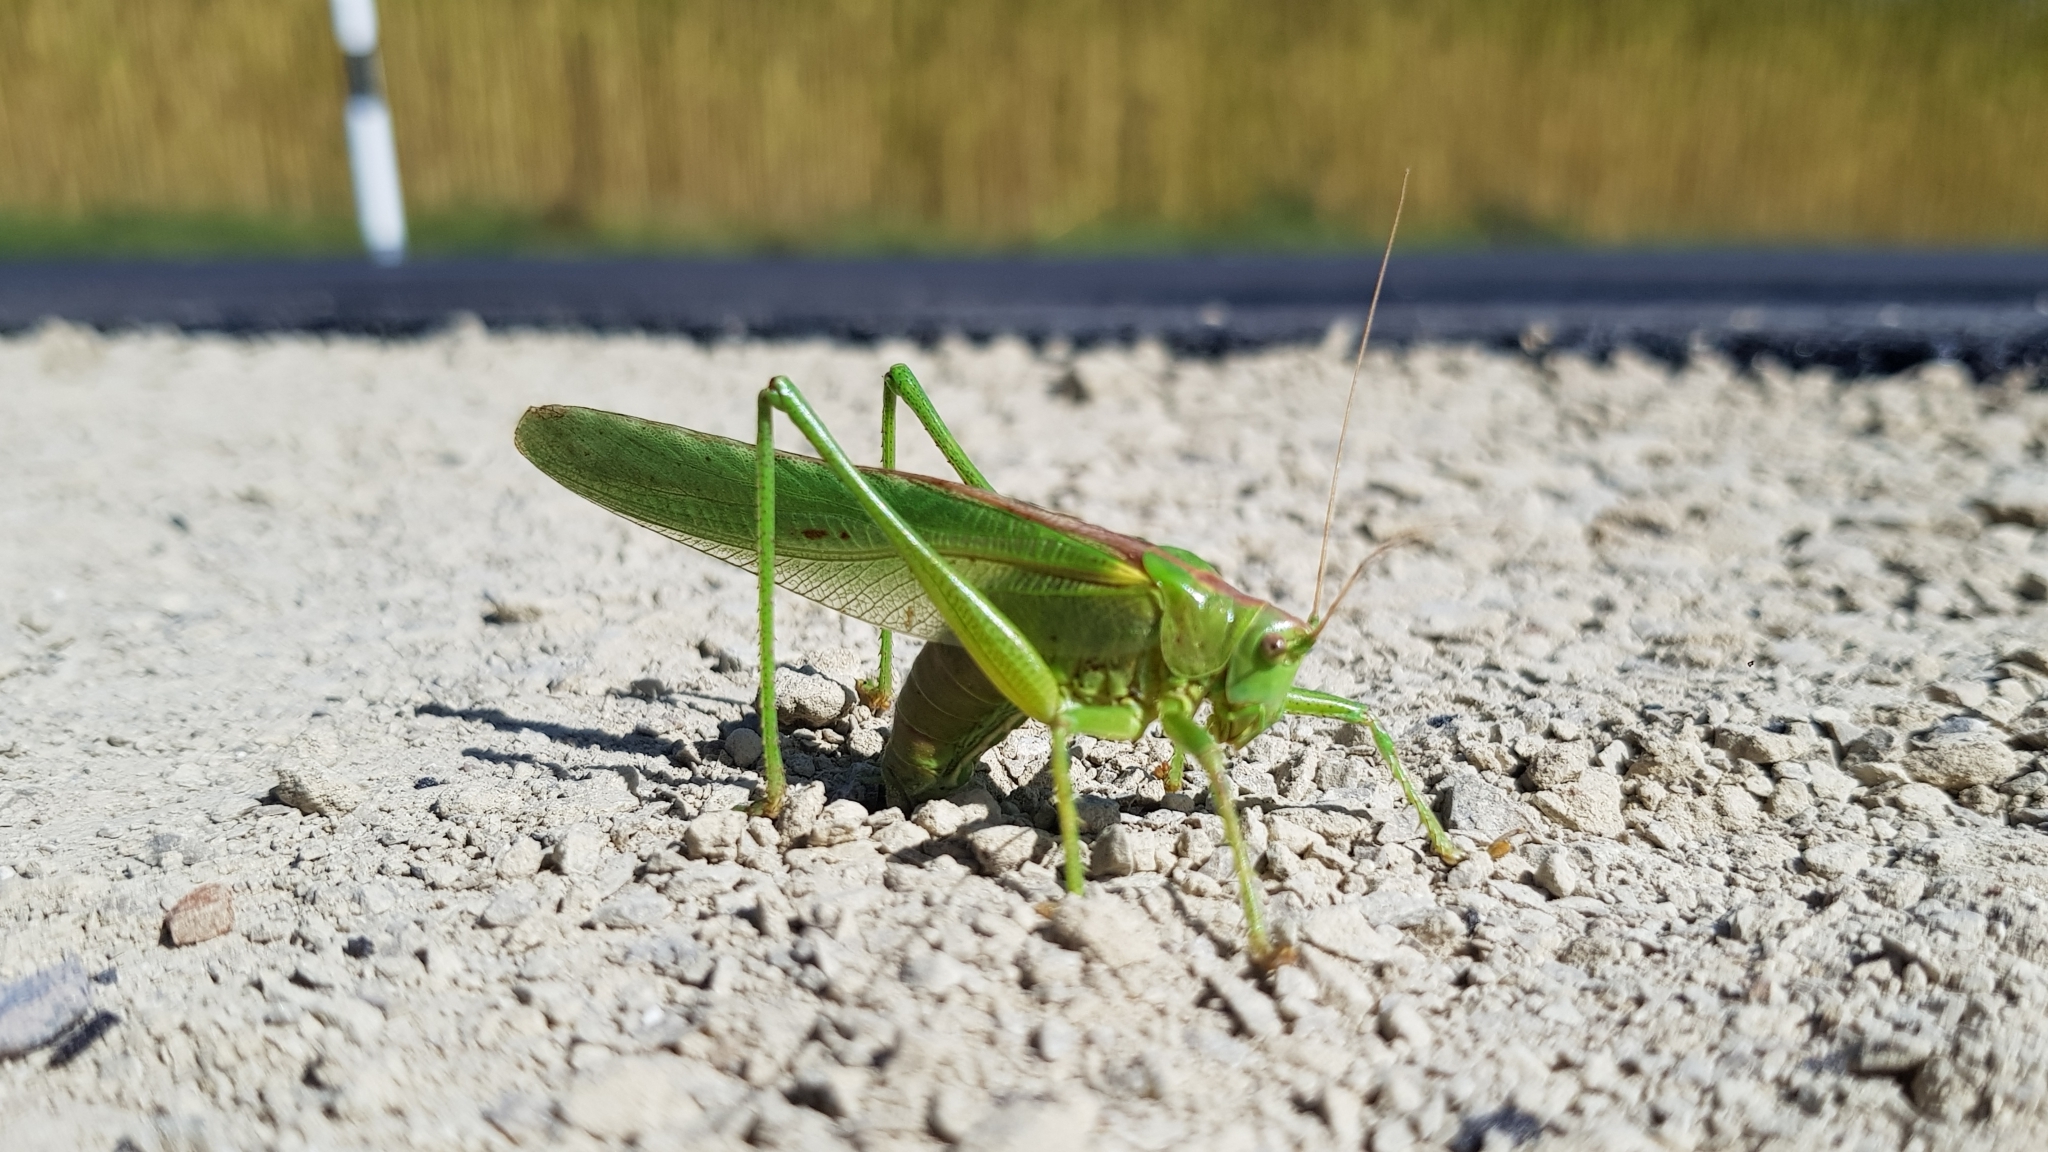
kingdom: Animalia
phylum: Arthropoda
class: Insecta
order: Orthoptera
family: Tettigoniidae
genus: Tettigonia
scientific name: Tettigonia viridissima
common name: Great green bush-cricket
